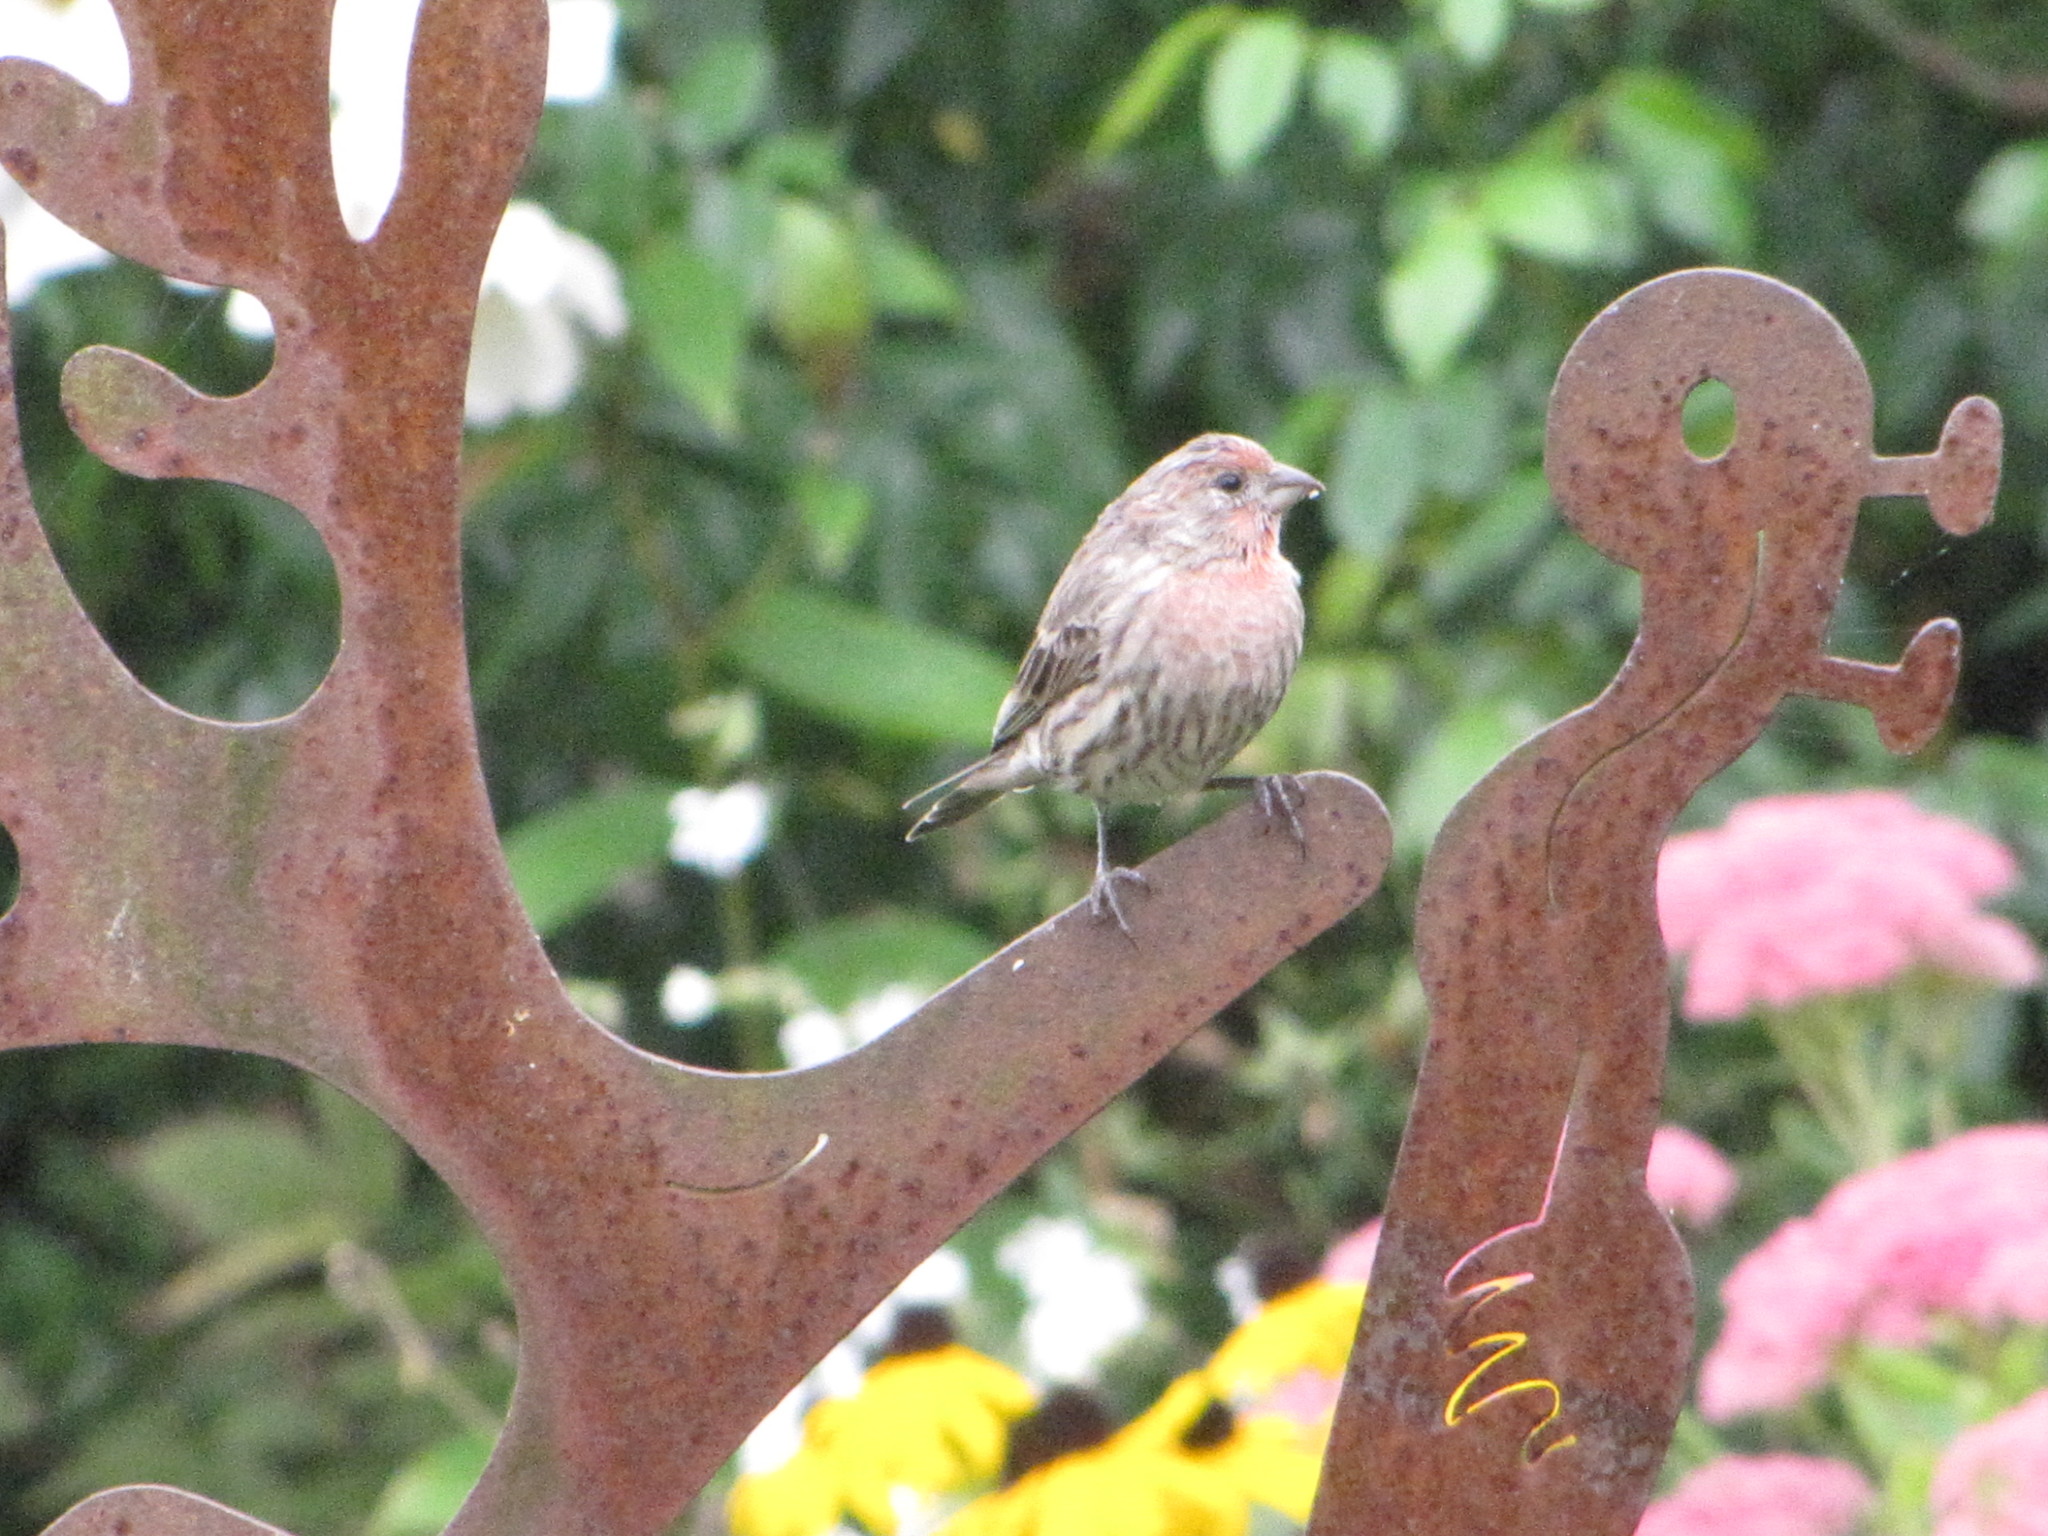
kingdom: Animalia
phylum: Chordata
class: Aves
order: Passeriformes
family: Fringillidae
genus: Haemorhous
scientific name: Haemorhous mexicanus
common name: House finch
